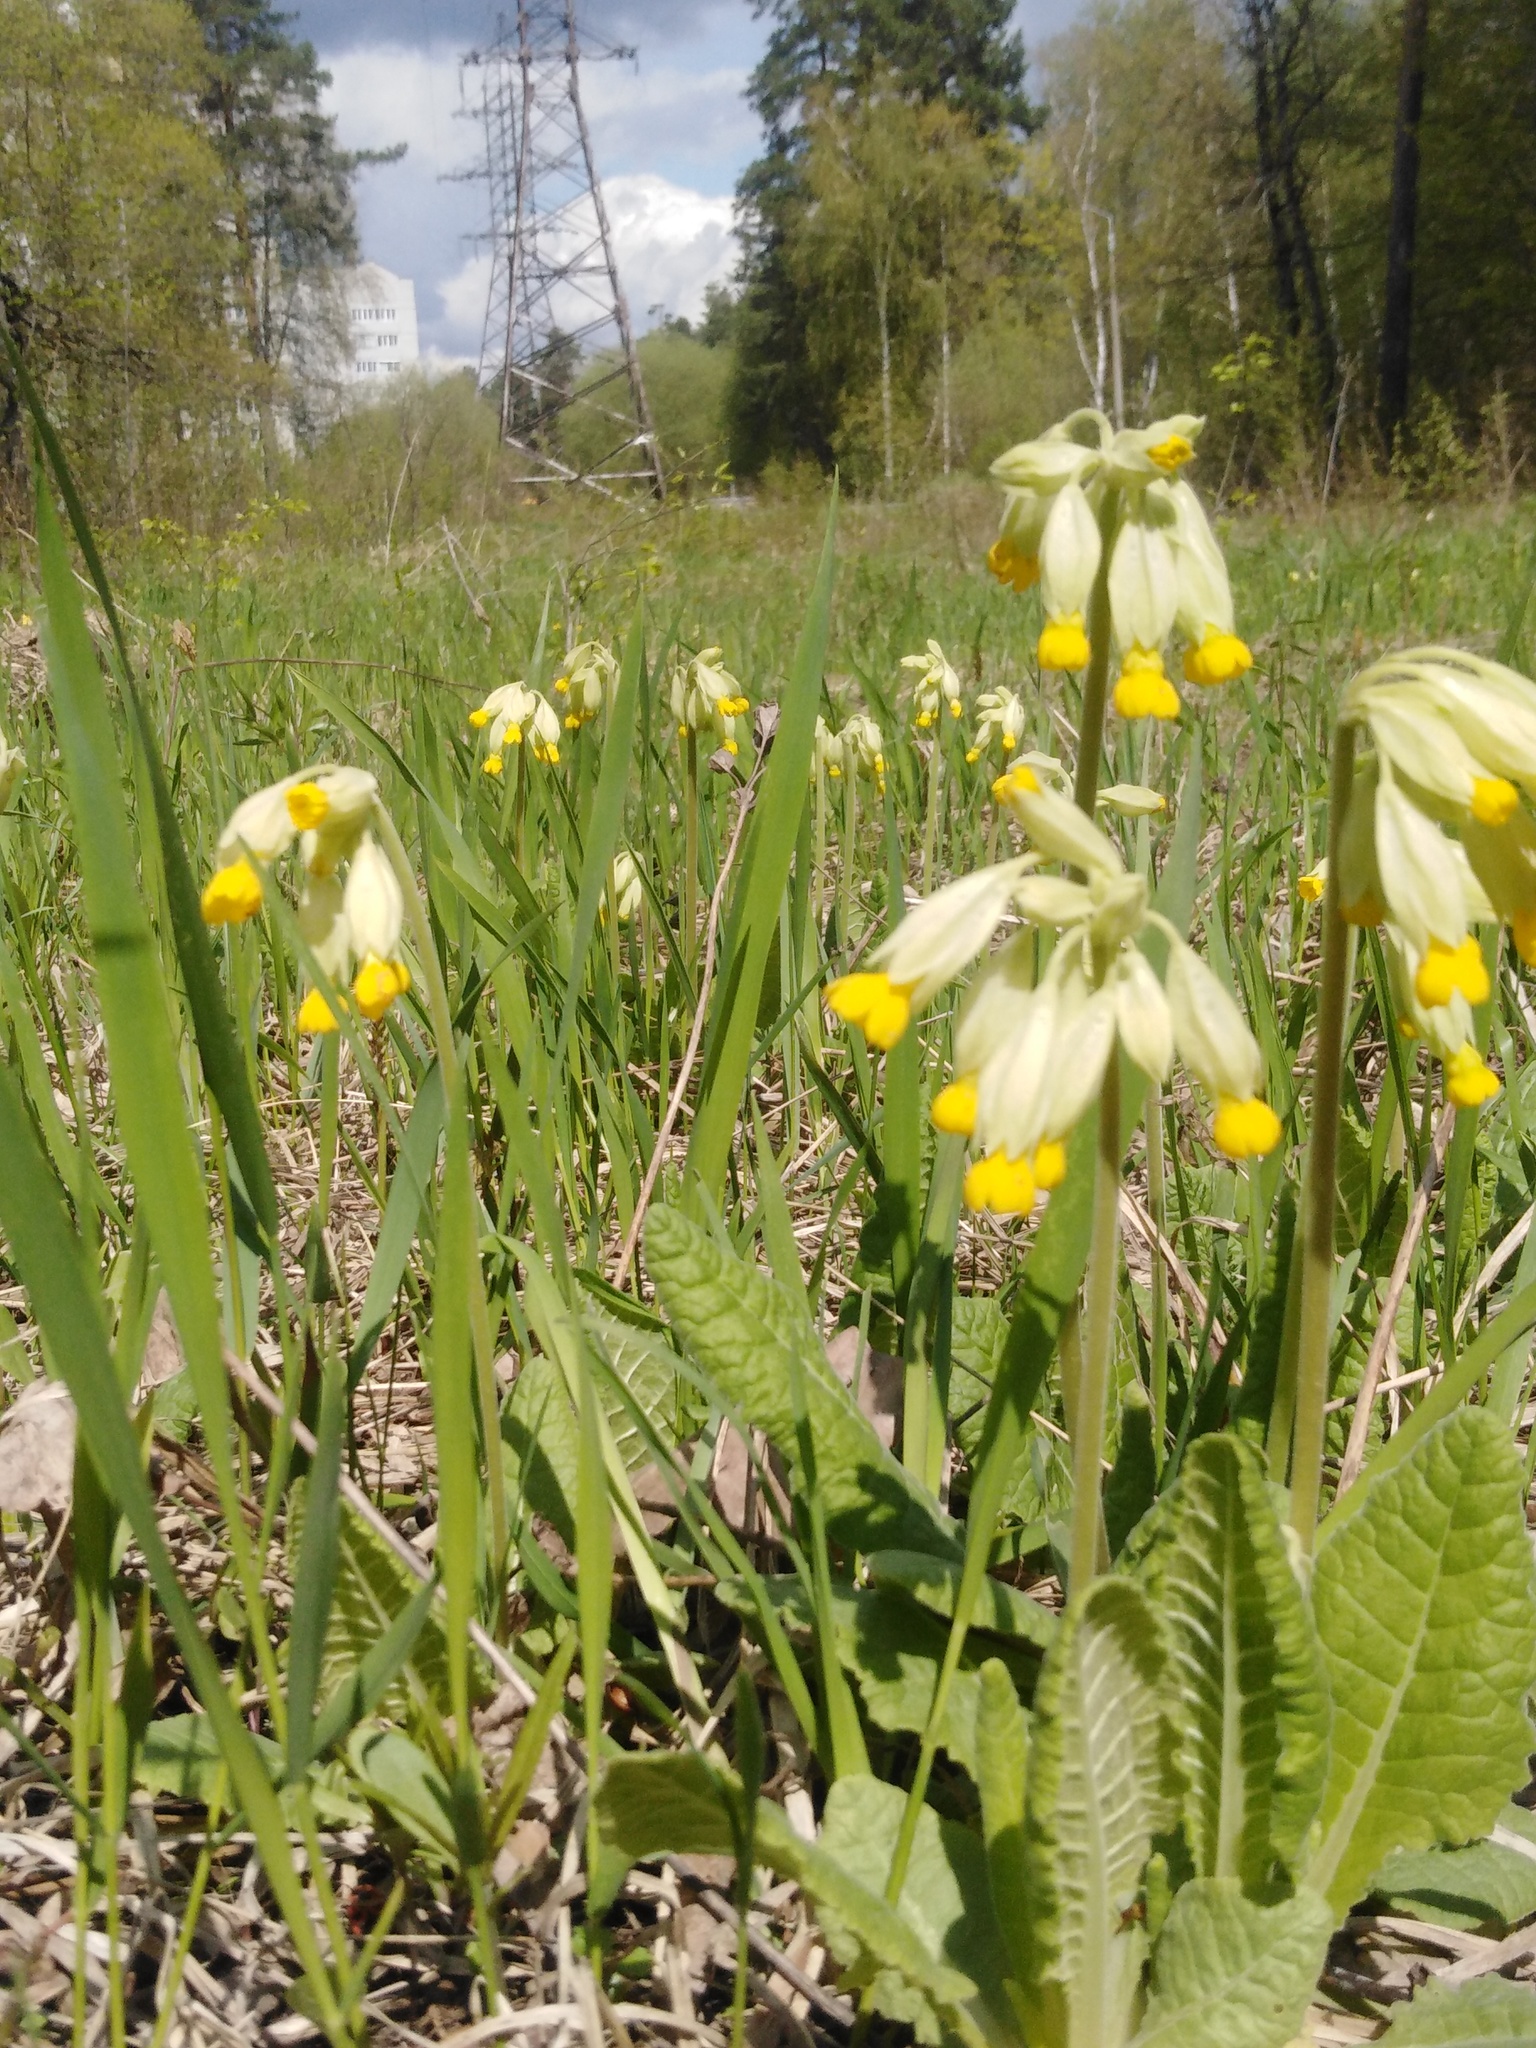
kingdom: Plantae
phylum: Tracheophyta
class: Magnoliopsida
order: Ericales
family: Primulaceae
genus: Primula
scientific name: Primula veris
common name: Cowslip
